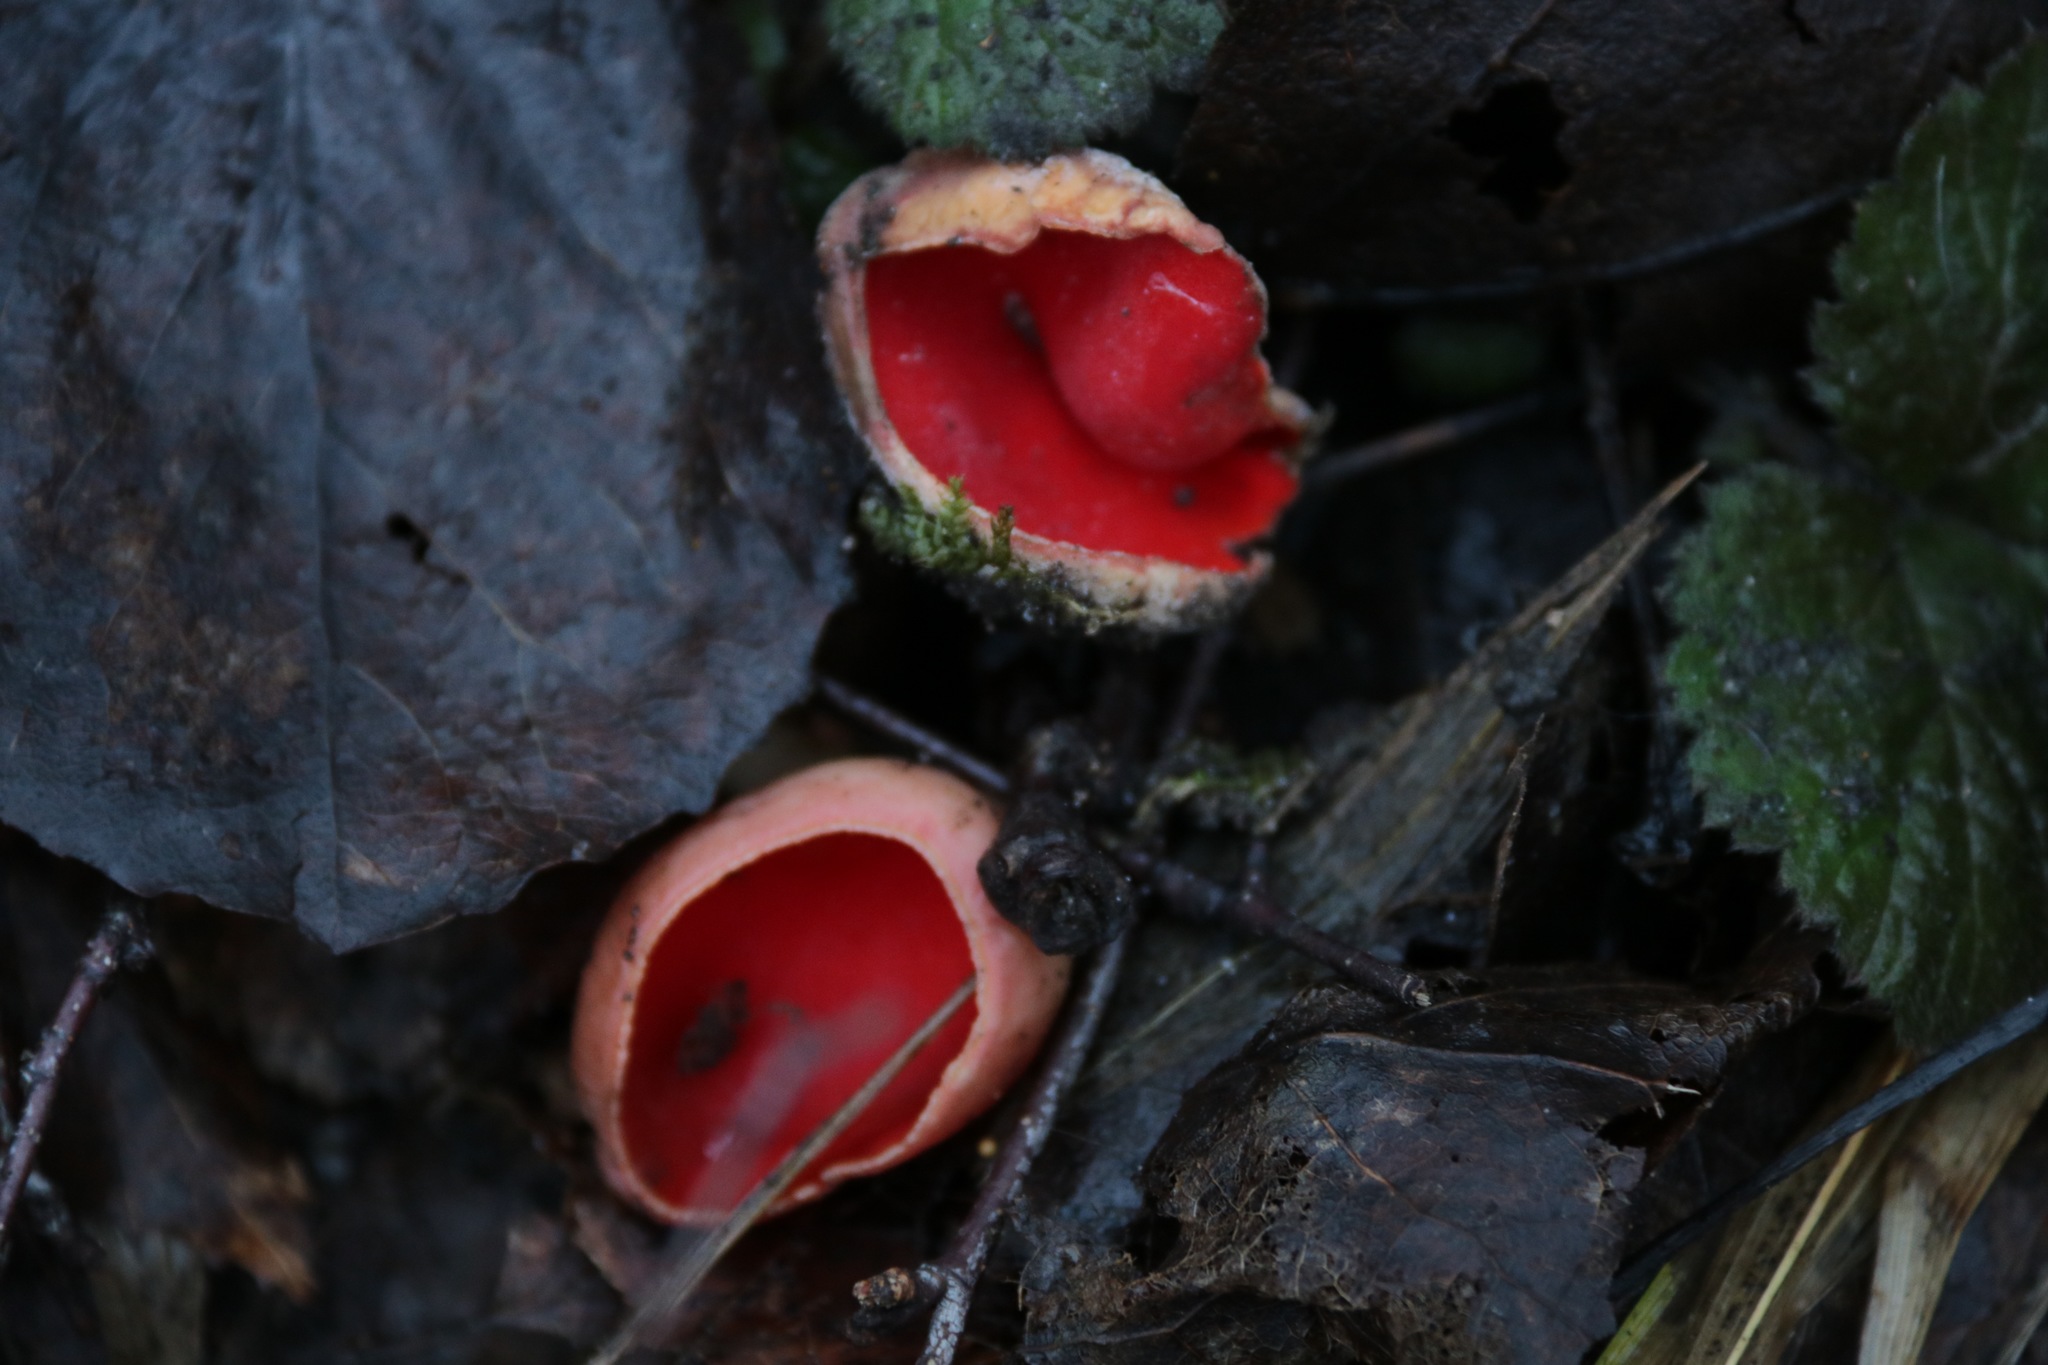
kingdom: Fungi
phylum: Ascomycota
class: Pezizomycetes
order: Pezizales
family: Sarcoscyphaceae
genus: Sarcoscypha
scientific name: Sarcoscypha austriaca
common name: Scarlet elfcup
